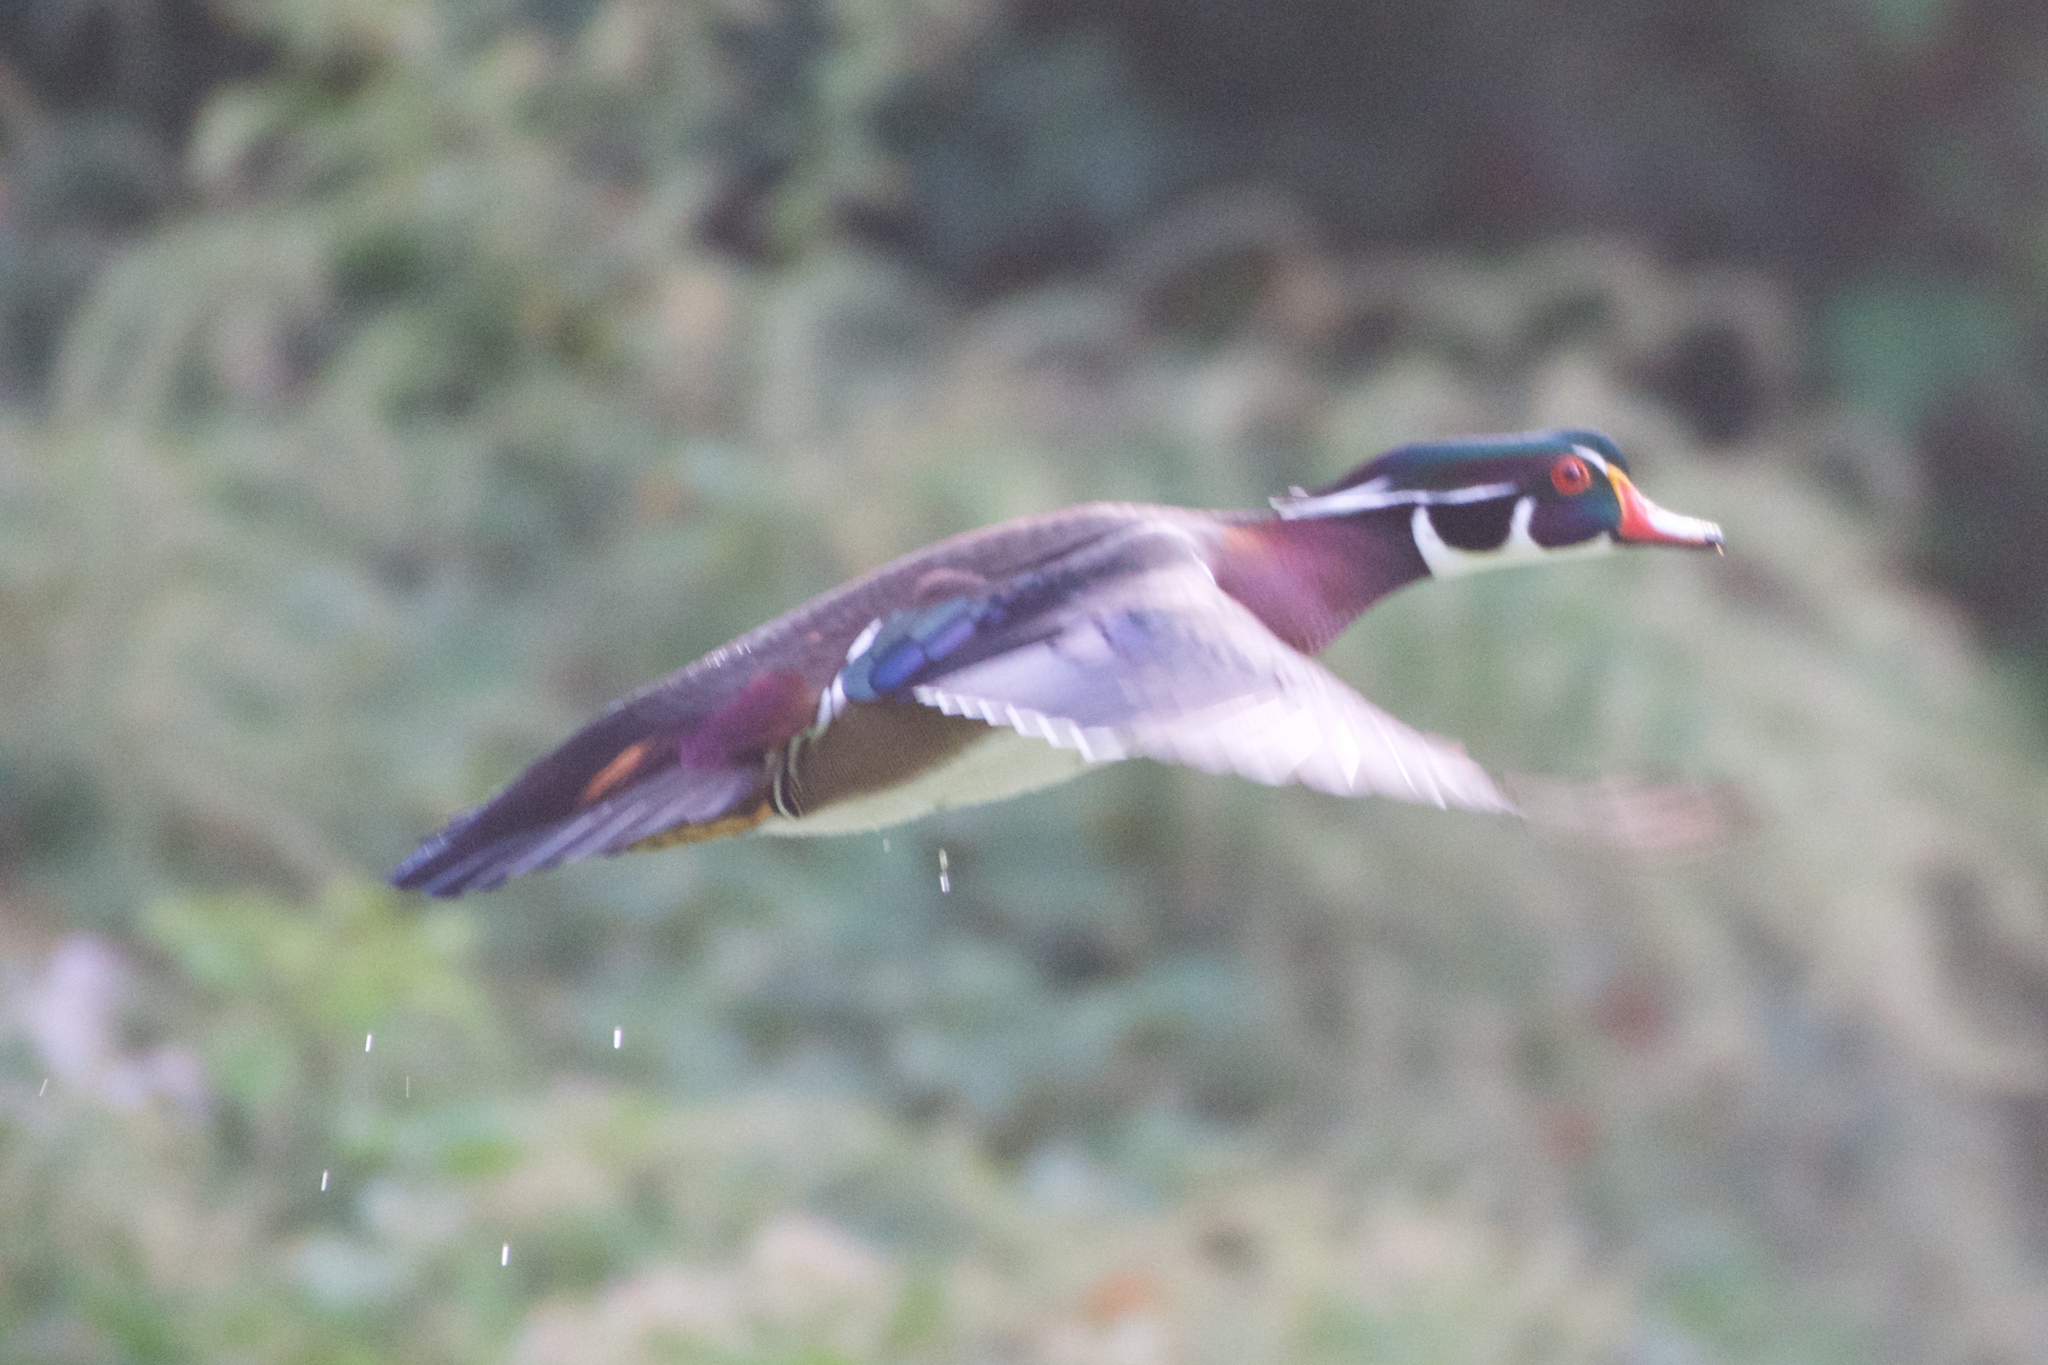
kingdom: Animalia
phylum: Chordata
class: Aves
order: Anseriformes
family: Anatidae
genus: Aix
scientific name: Aix sponsa
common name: Wood duck
